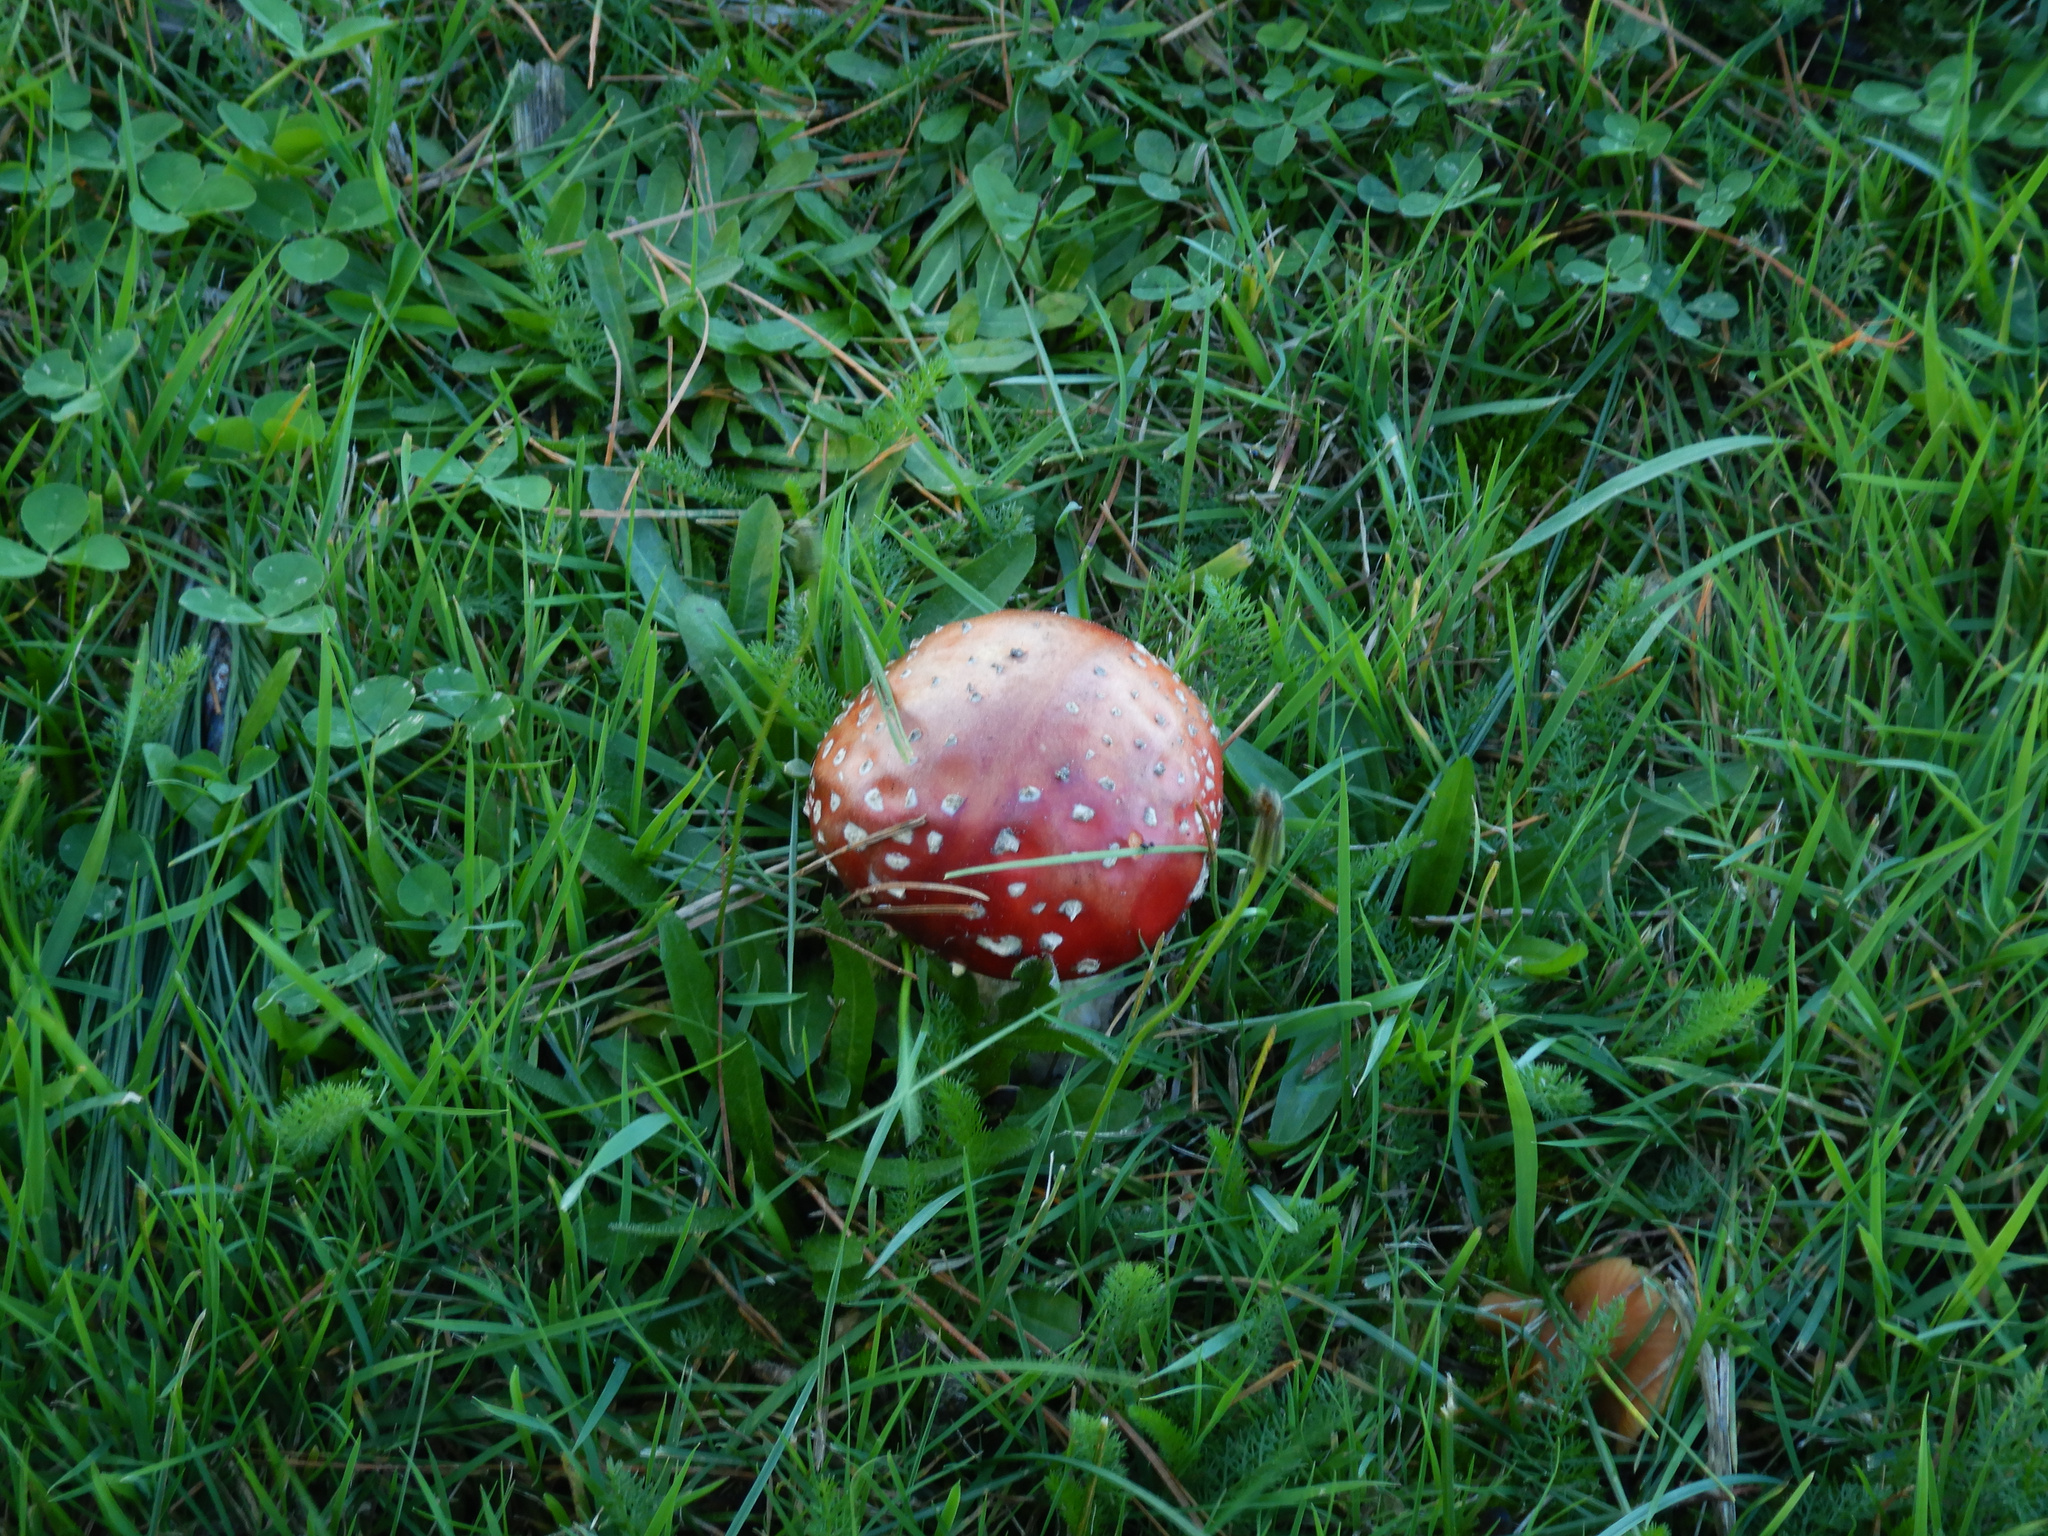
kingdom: Fungi
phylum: Basidiomycota
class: Agaricomycetes
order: Agaricales
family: Amanitaceae
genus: Amanita
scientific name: Amanita muscaria
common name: Fly agaric
